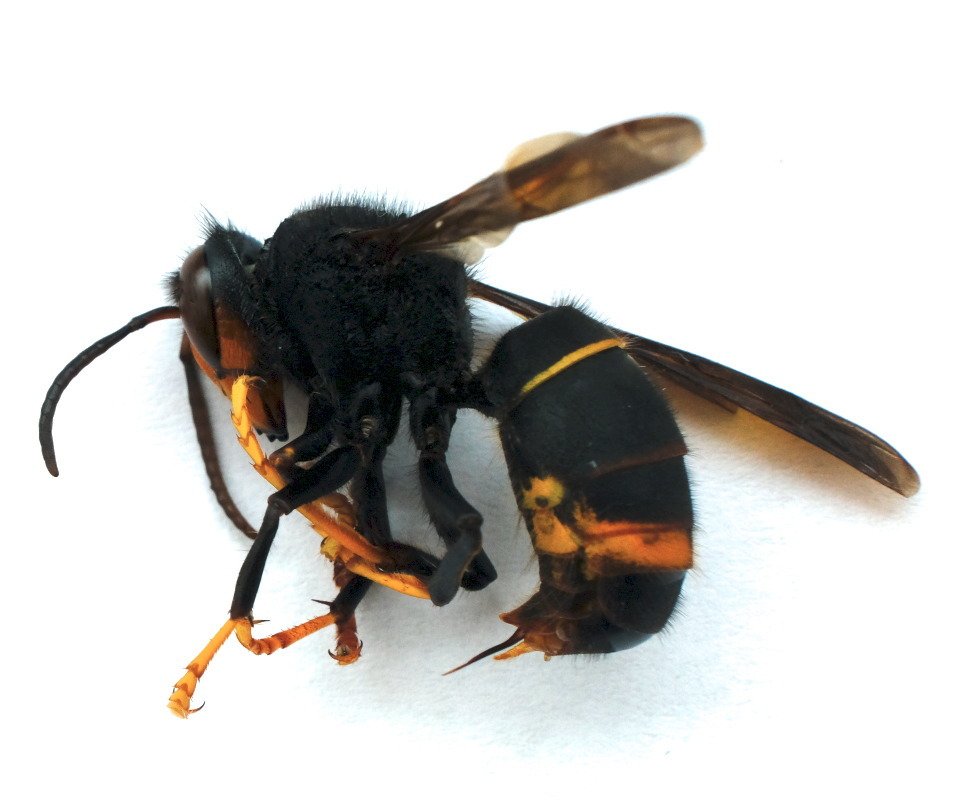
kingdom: Animalia
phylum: Arthropoda
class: Insecta
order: Hymenoptera
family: Vespidae
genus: Vespa
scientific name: Vespa velutina
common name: Asian hornet
